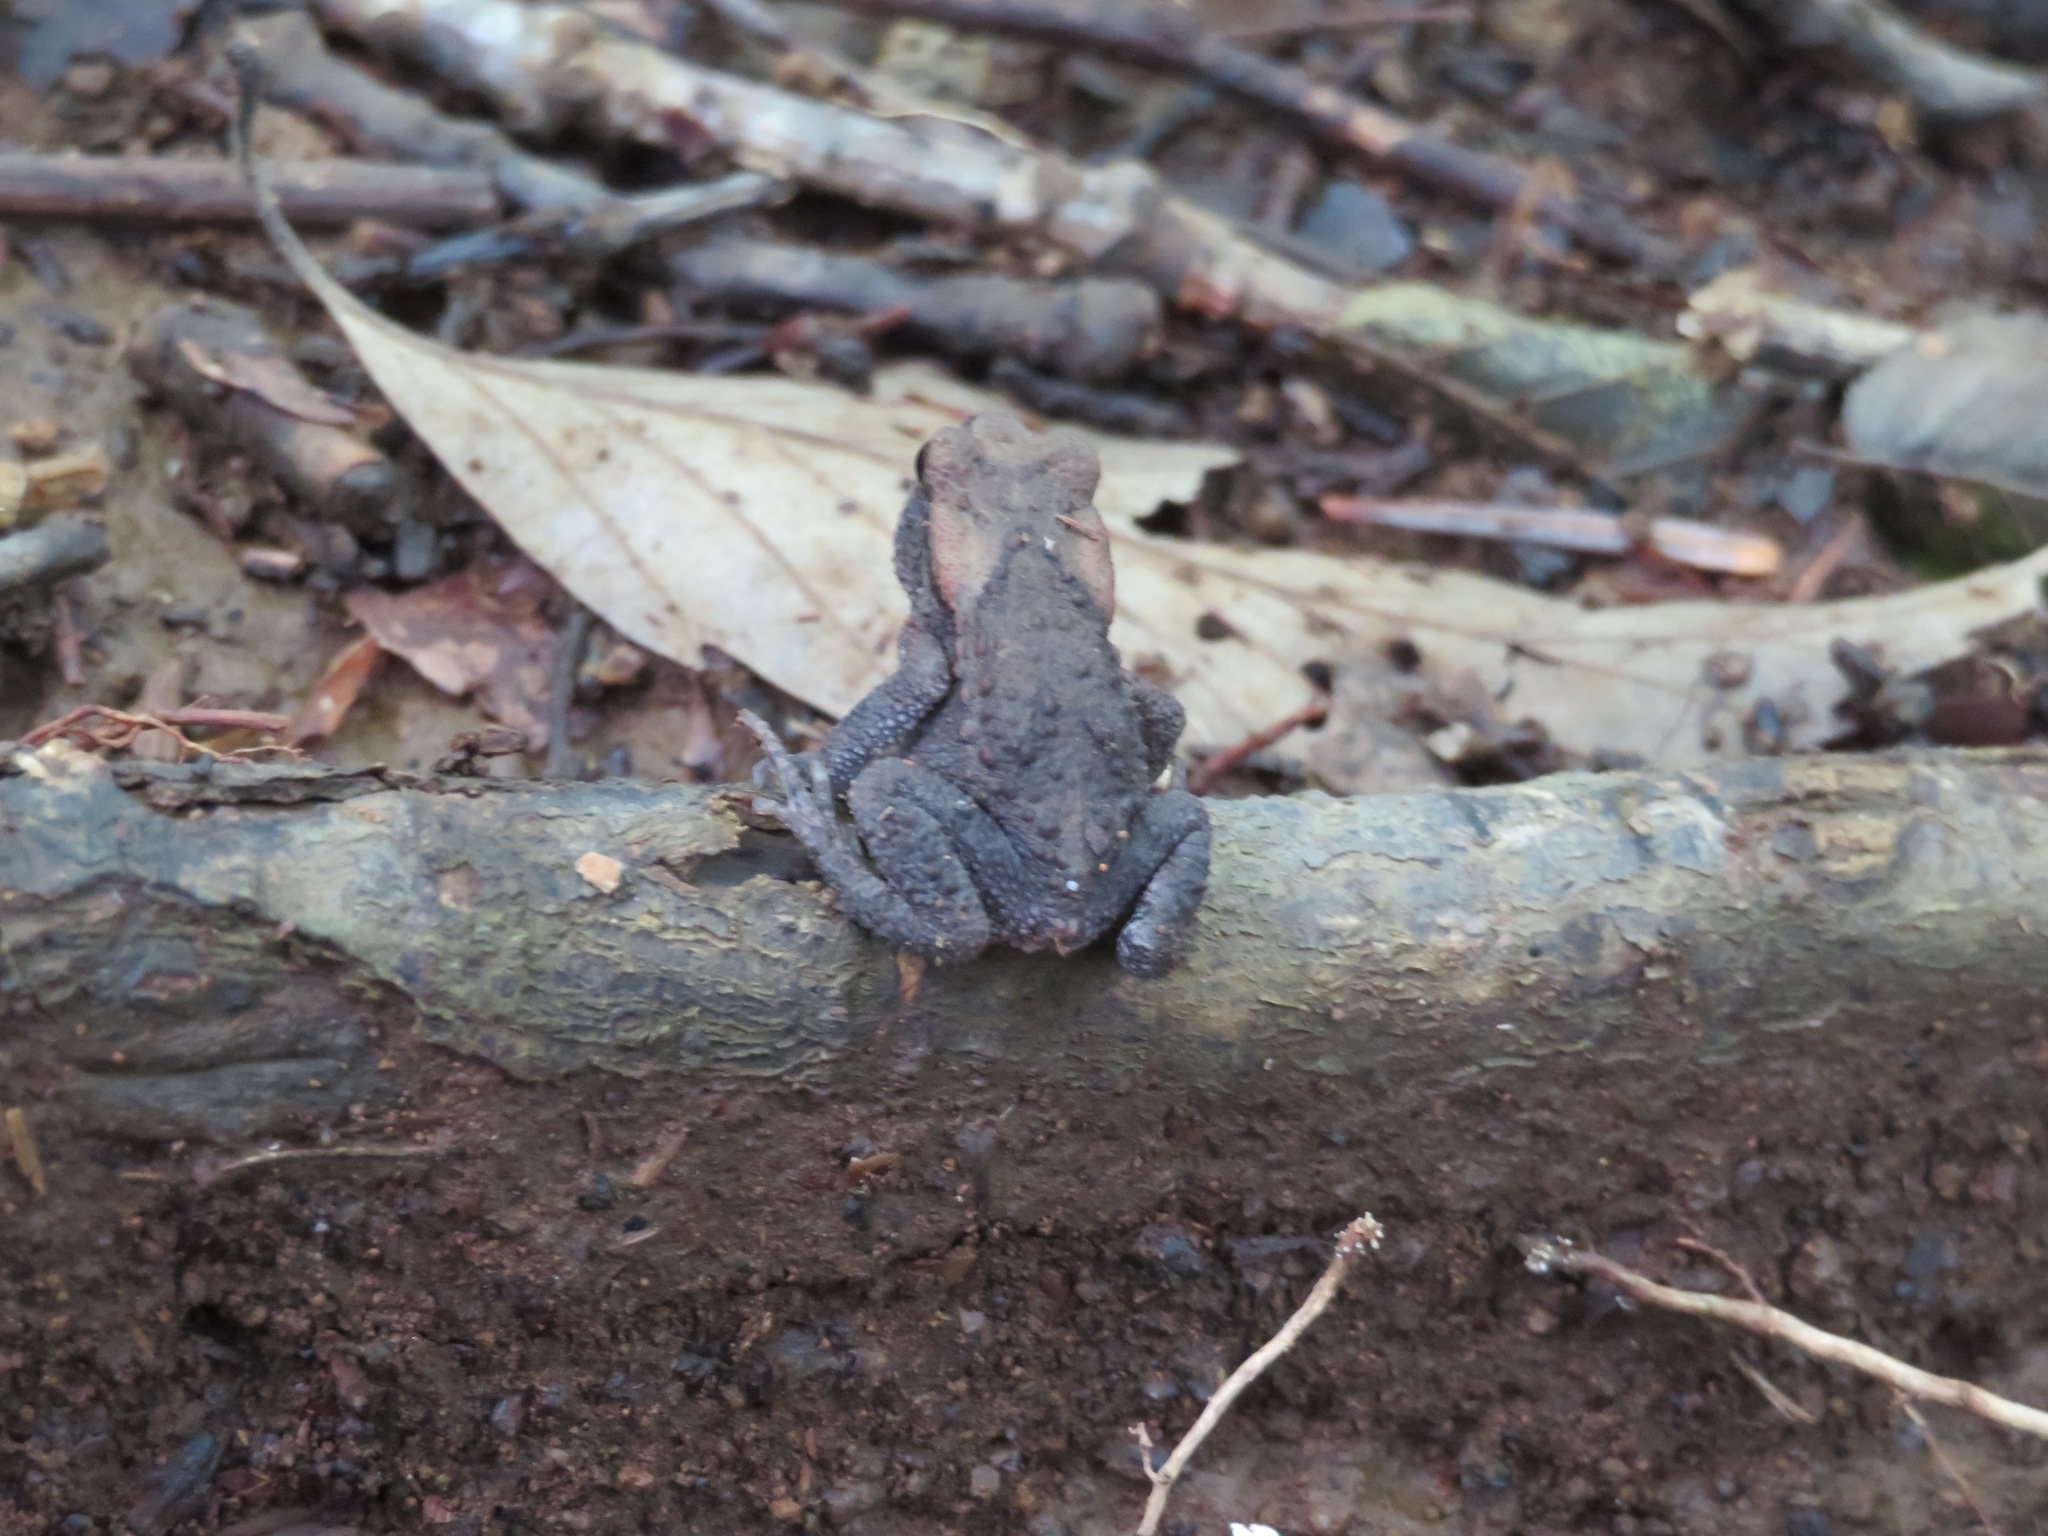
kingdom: Animalia
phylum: Chordata
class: Amphibia
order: Anura
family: Bufonidae
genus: Bufo
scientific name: Bufo japonicus
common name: Japanese common toad
